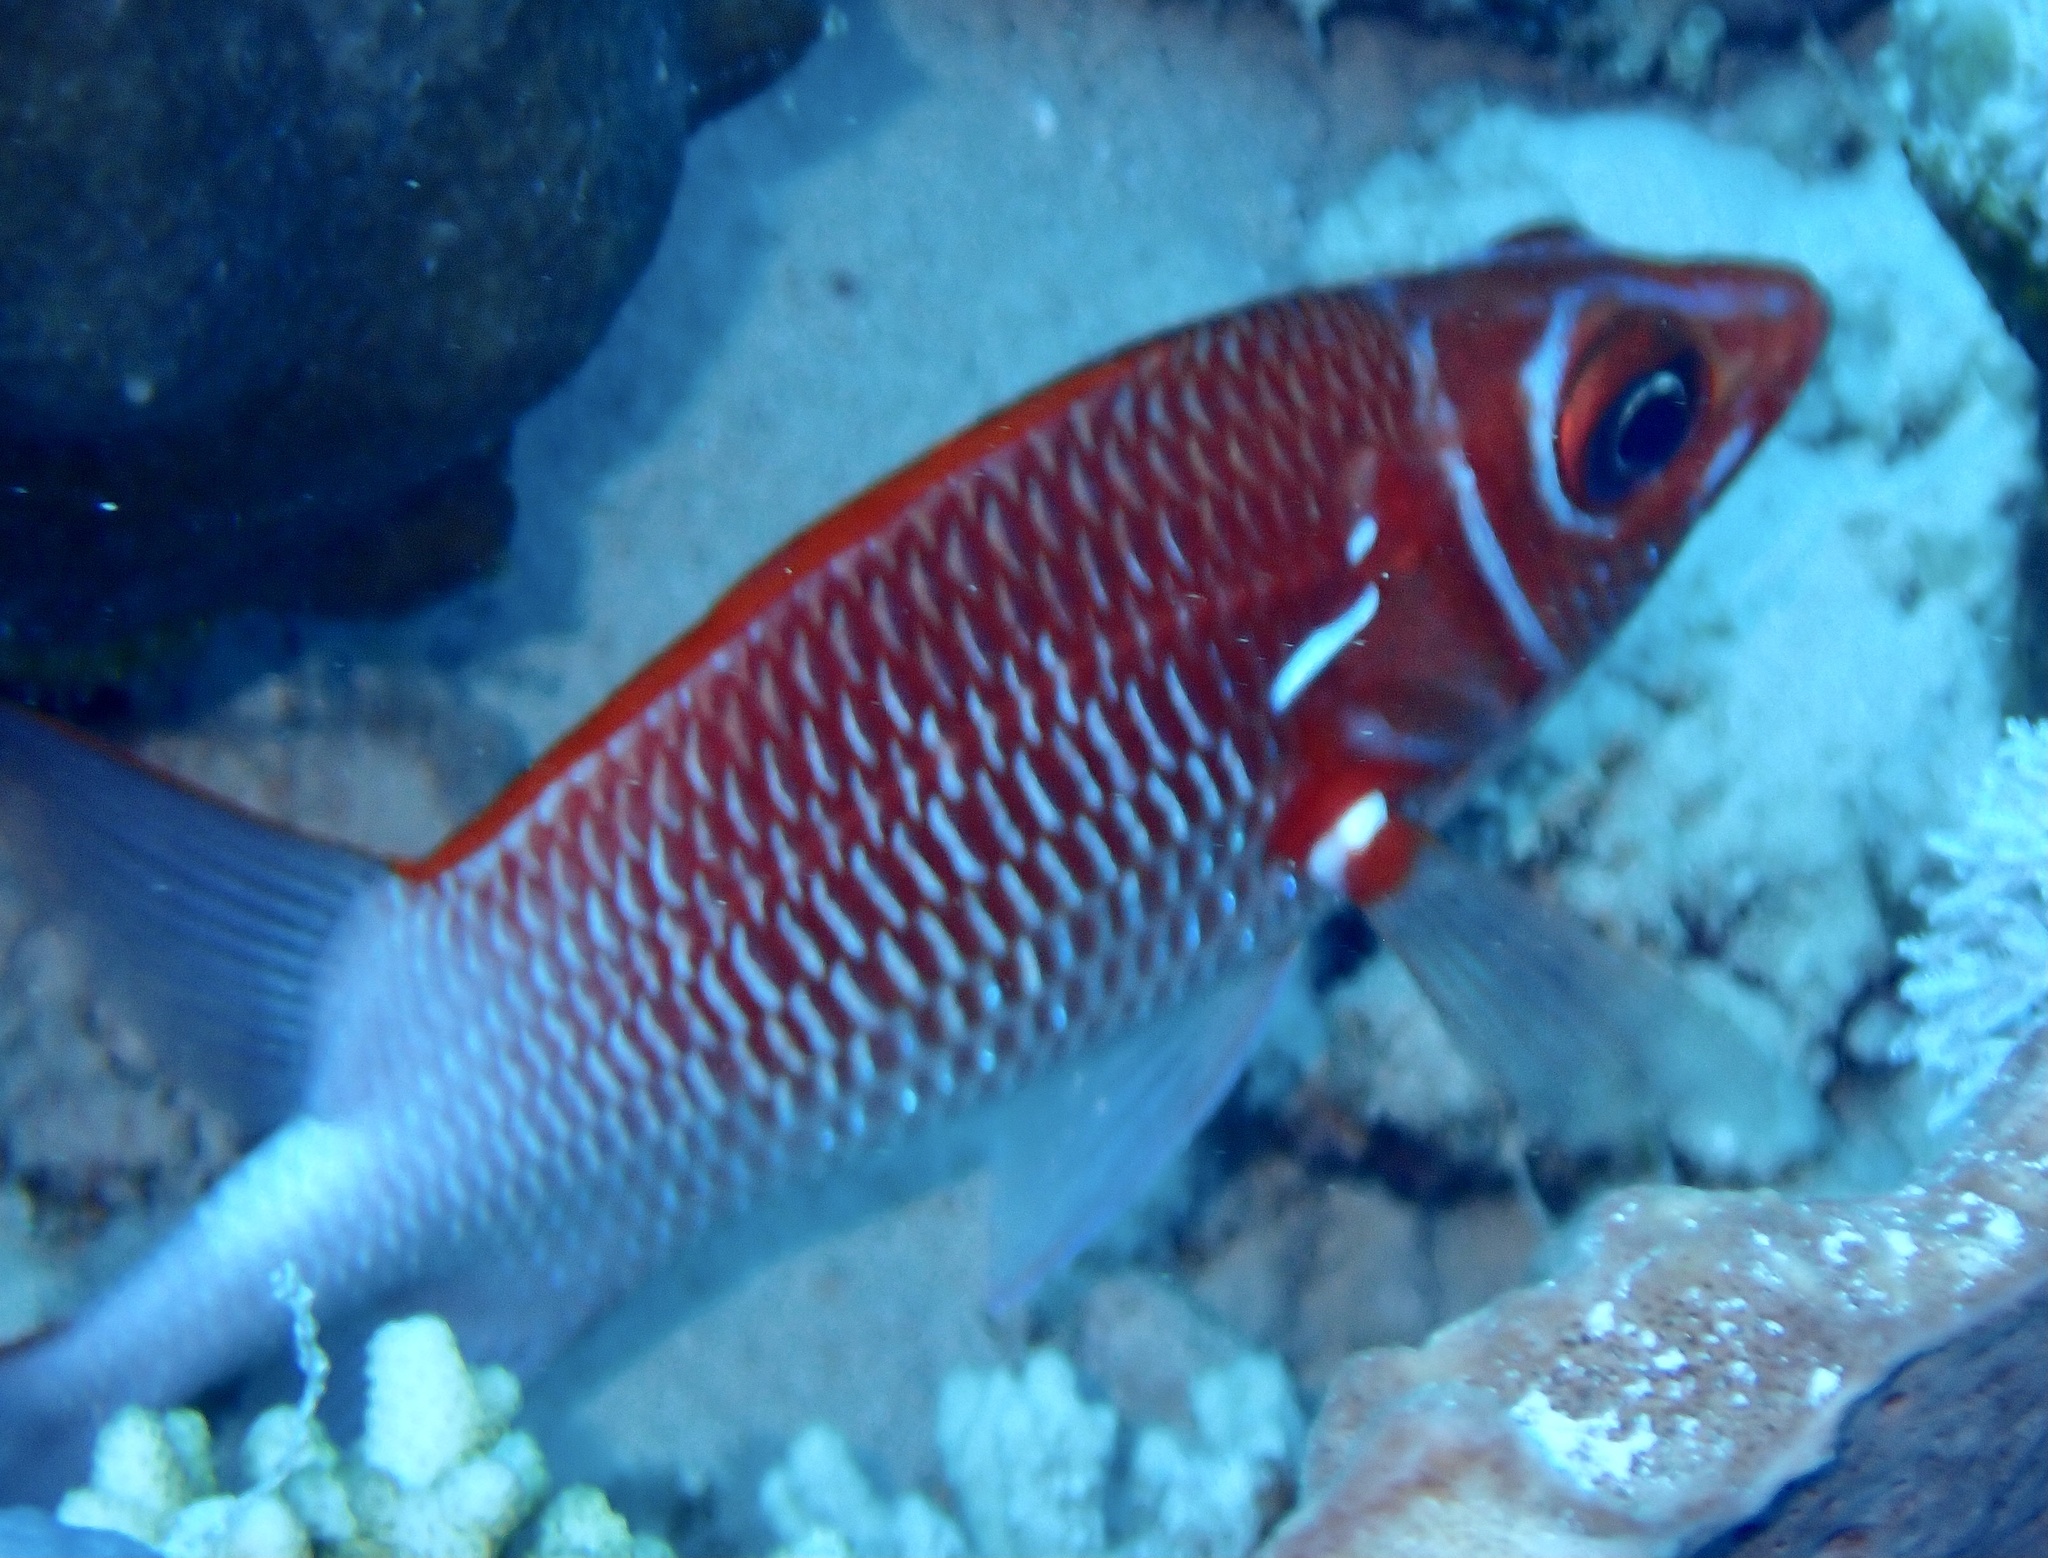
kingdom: Animalia
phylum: Chordata
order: Beryciformes
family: Holocentridae
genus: Sargocentron
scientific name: Sargocentron caudimaculatum
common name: Fanfin soldier
